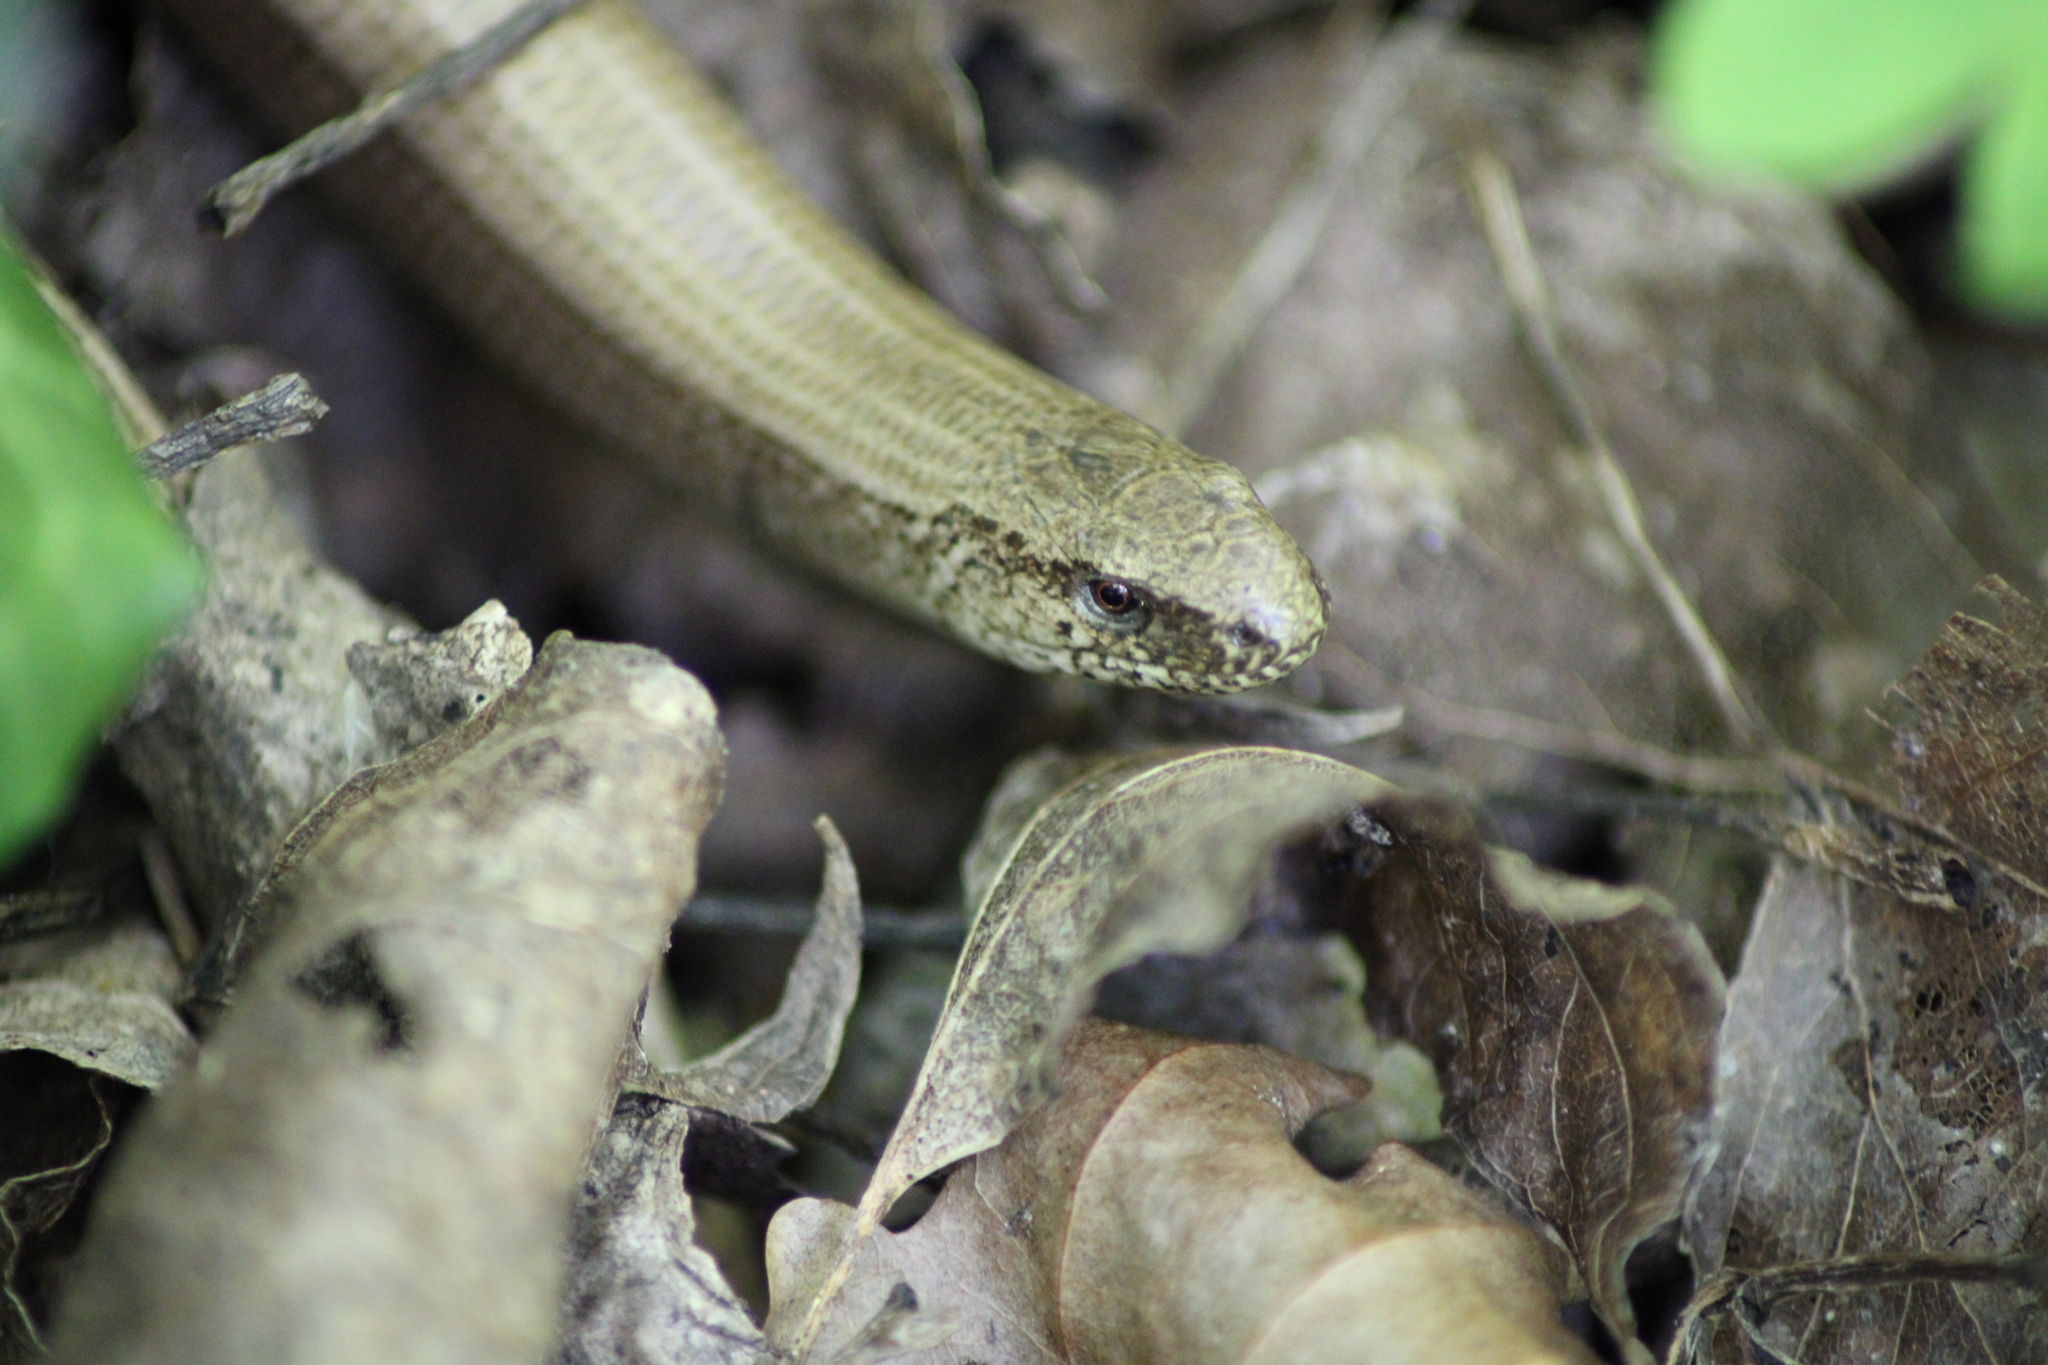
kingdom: Animalia
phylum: Chordata
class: Squamata
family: Anguidae
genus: Anguis
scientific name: Anguis fragilis
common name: Slow worm
